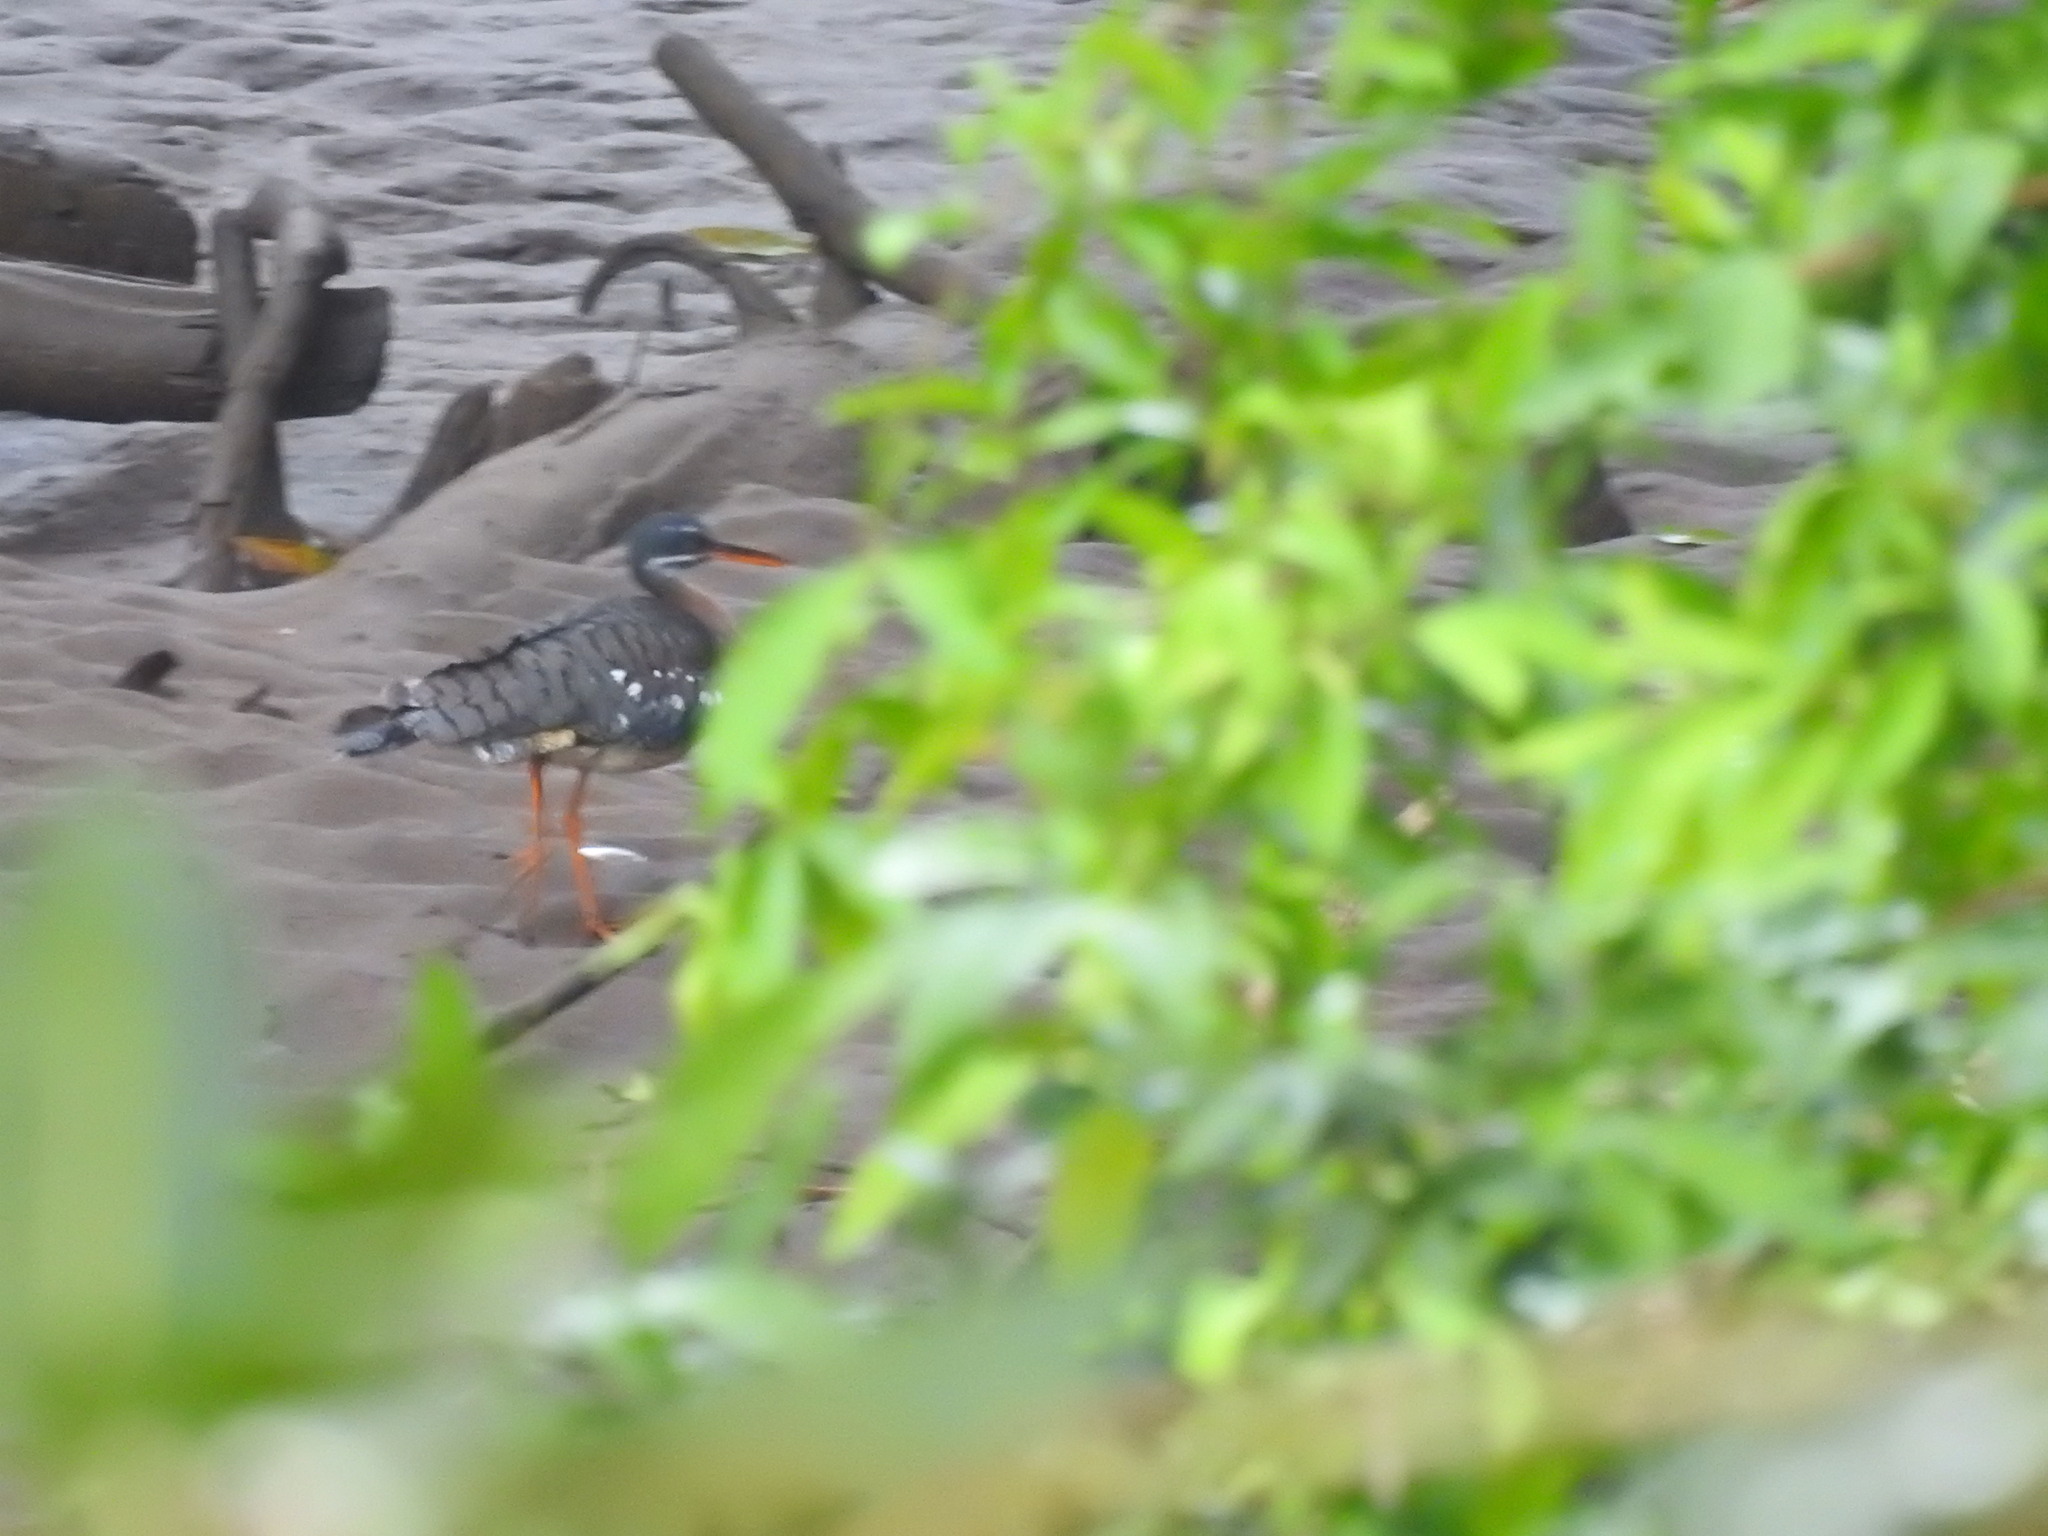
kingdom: Animalia
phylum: Chordata
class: Aves
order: Eurypygiformes
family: Eurypygidae
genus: Eurypyga
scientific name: Eurypyga helias
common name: Sunbittern
